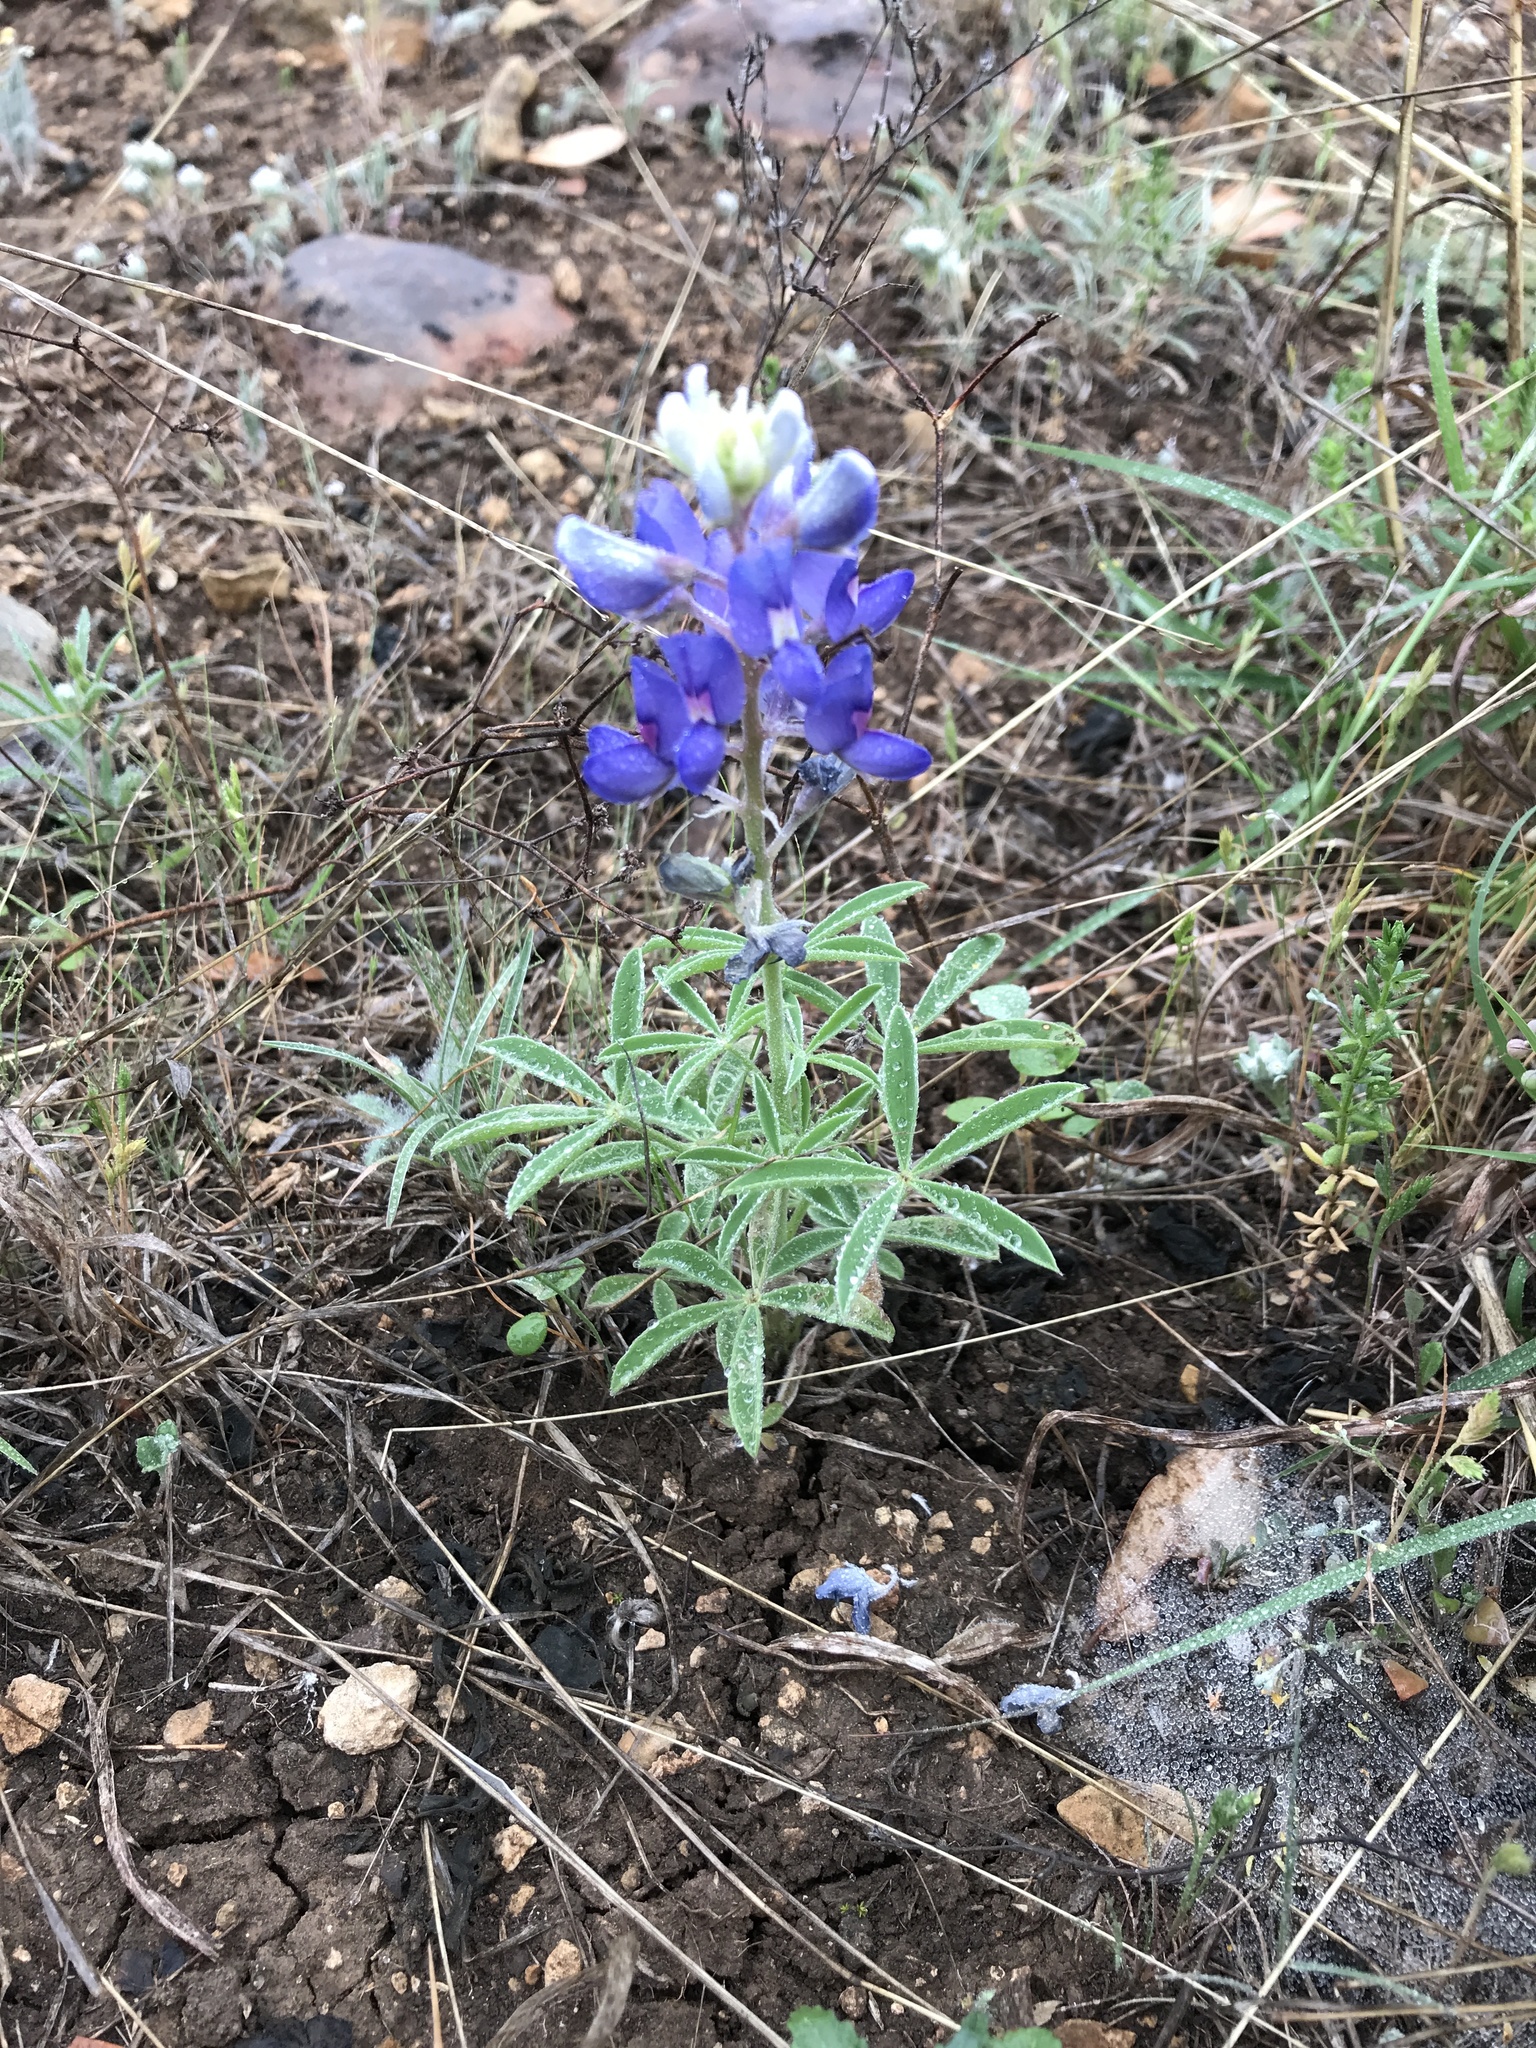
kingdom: Plantae
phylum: Tracheophyta
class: Magnoliopsida
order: Fabales
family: Fabaceae
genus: Lupinus
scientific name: Lupinus texensis
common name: Texas bluebonnet
